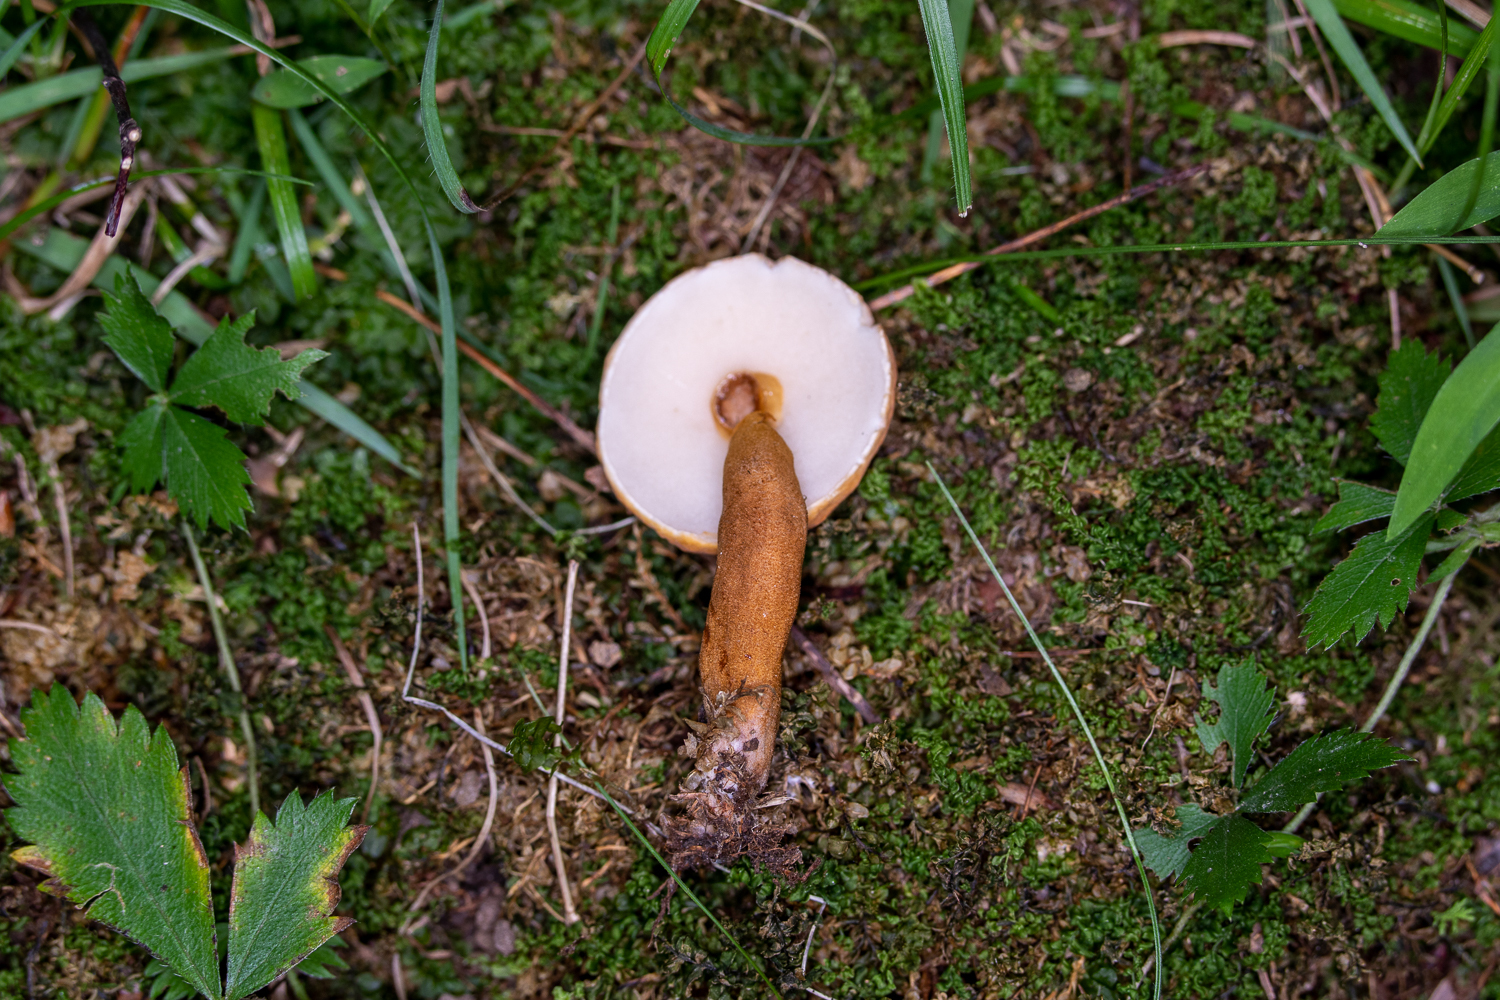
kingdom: Fungi
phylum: Basidiomycota
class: Agaricomycetes
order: Boletales
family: Gyroporaceae
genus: Gyroporus
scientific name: Gyroporus castaneus
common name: Chestnut bolete
